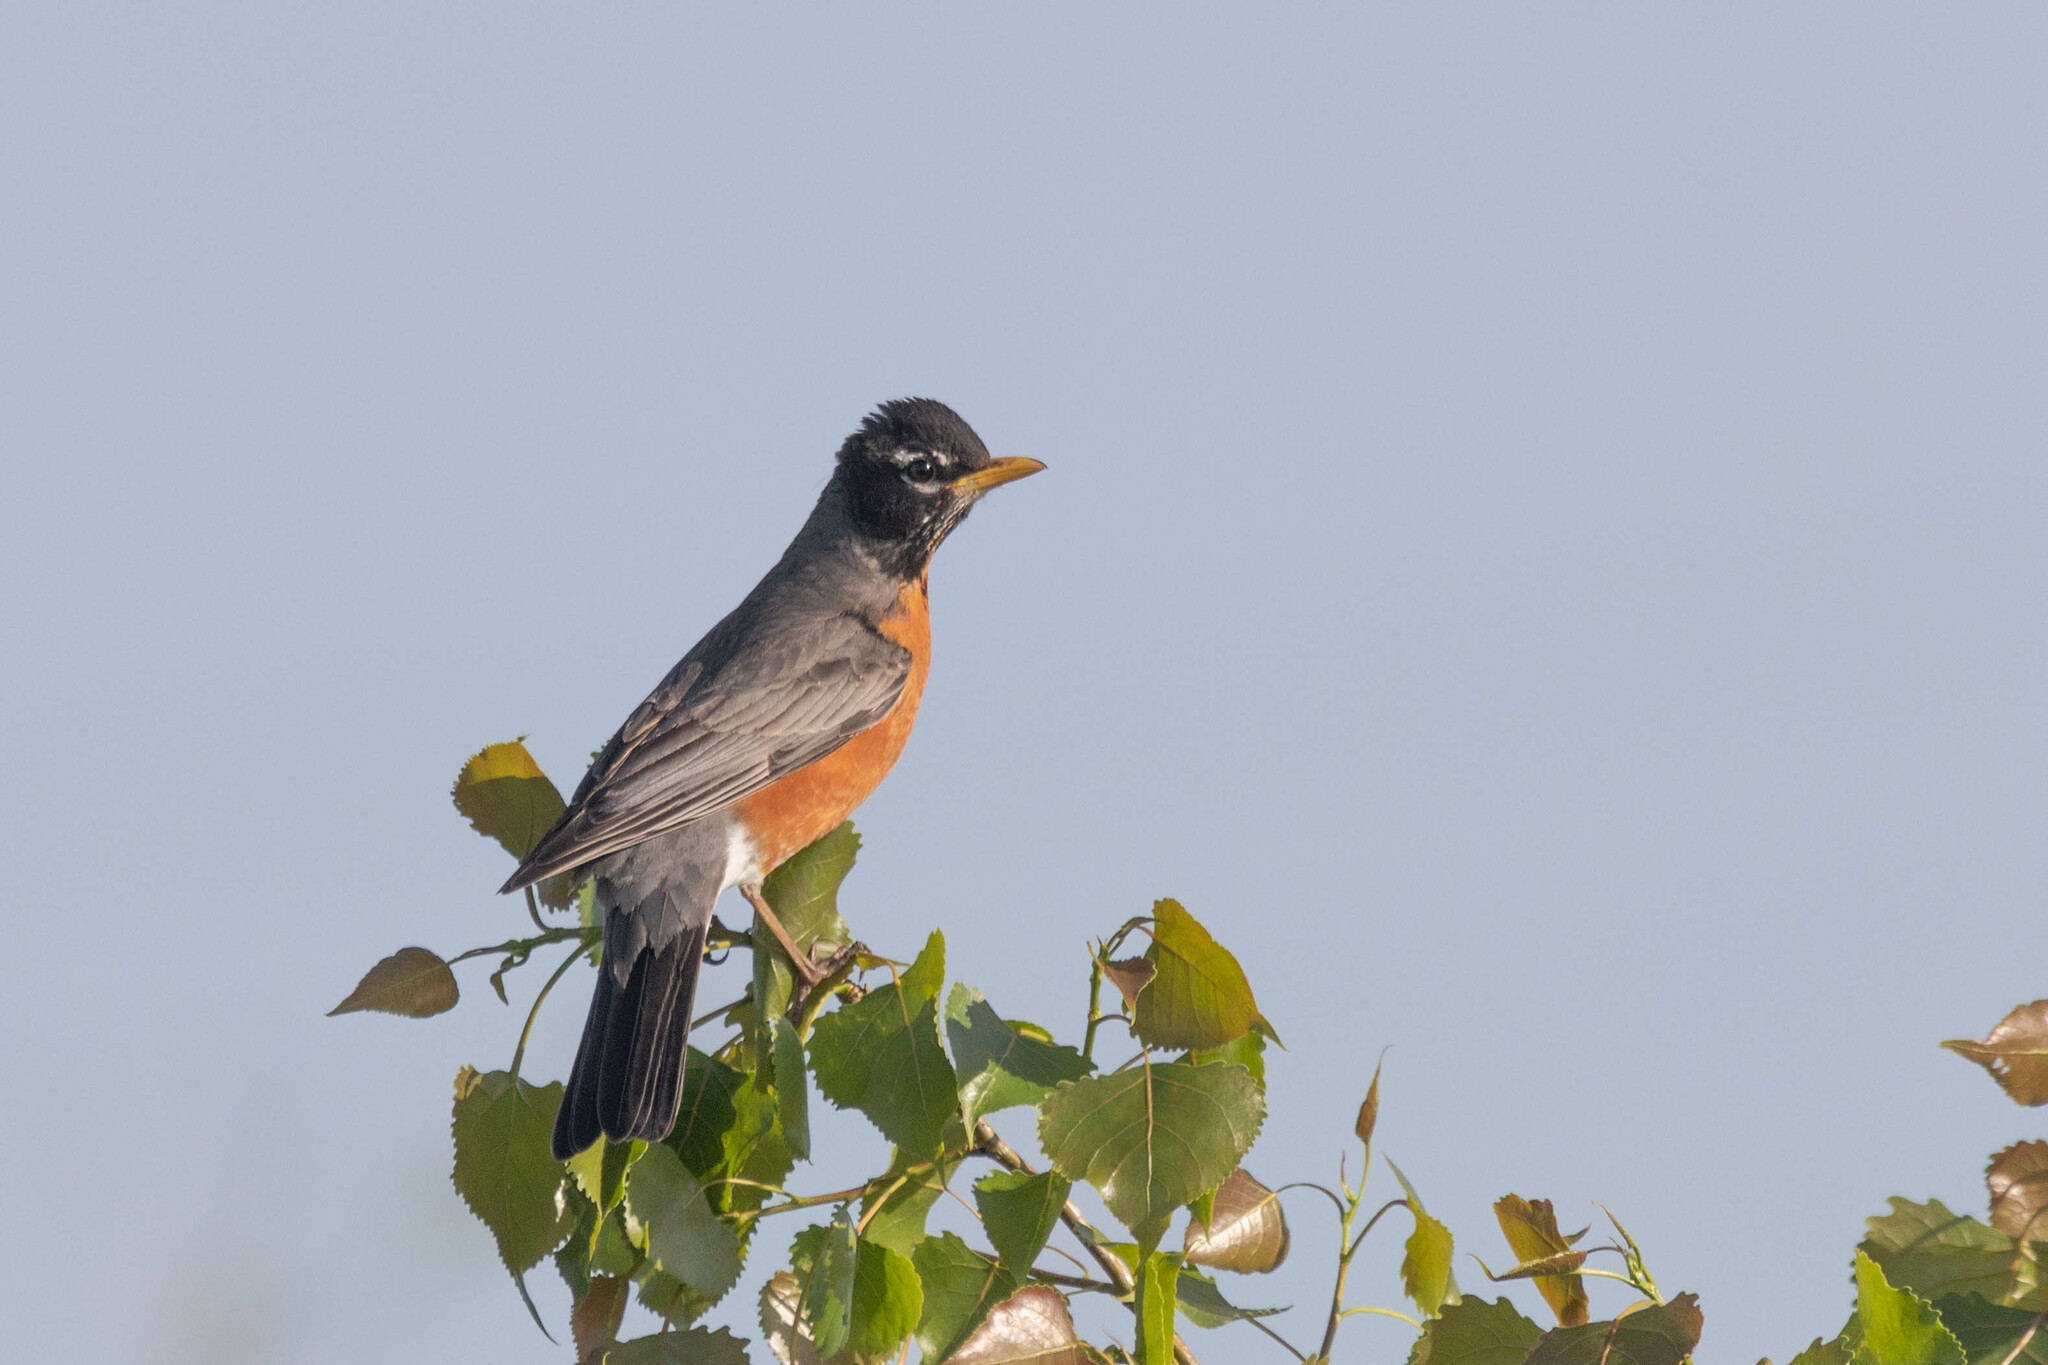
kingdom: Animalia
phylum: Chordata
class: Aves
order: Passeriformes
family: Turdidae
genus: Turdus
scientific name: Turdus migratorius
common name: American robin
